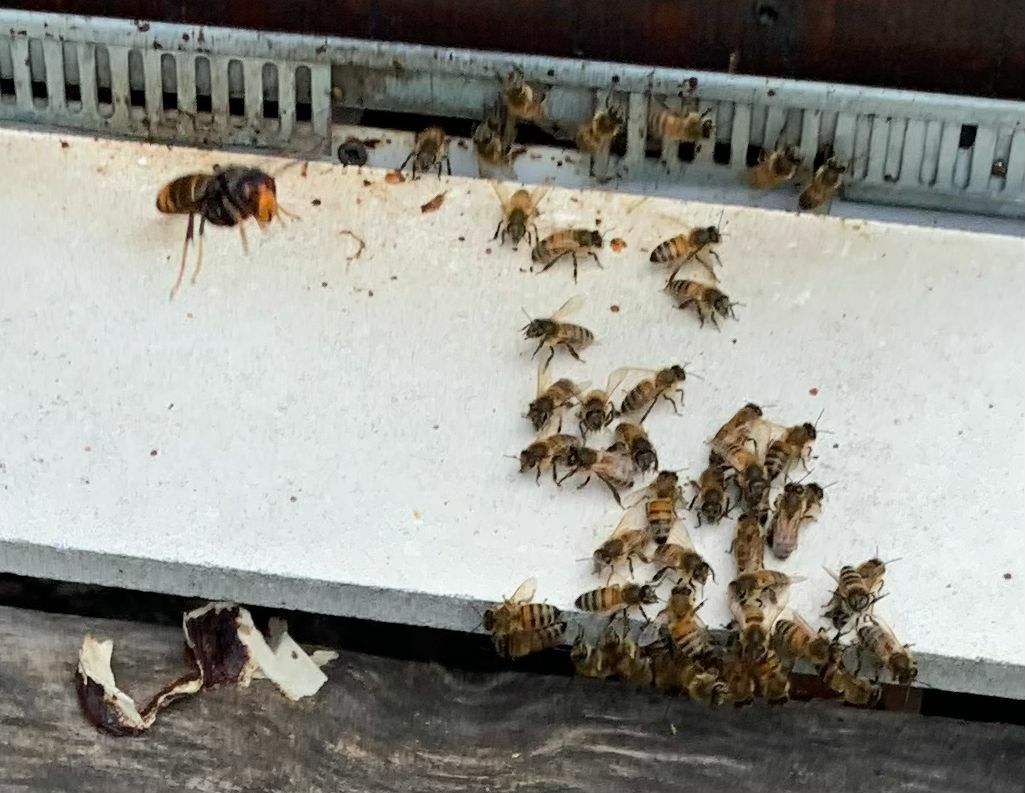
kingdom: Animalia
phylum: Arthropoda
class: Insecta
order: Hymenoptera
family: Vespidae
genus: Vespa
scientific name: Vespa velutina
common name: Asian hornet
